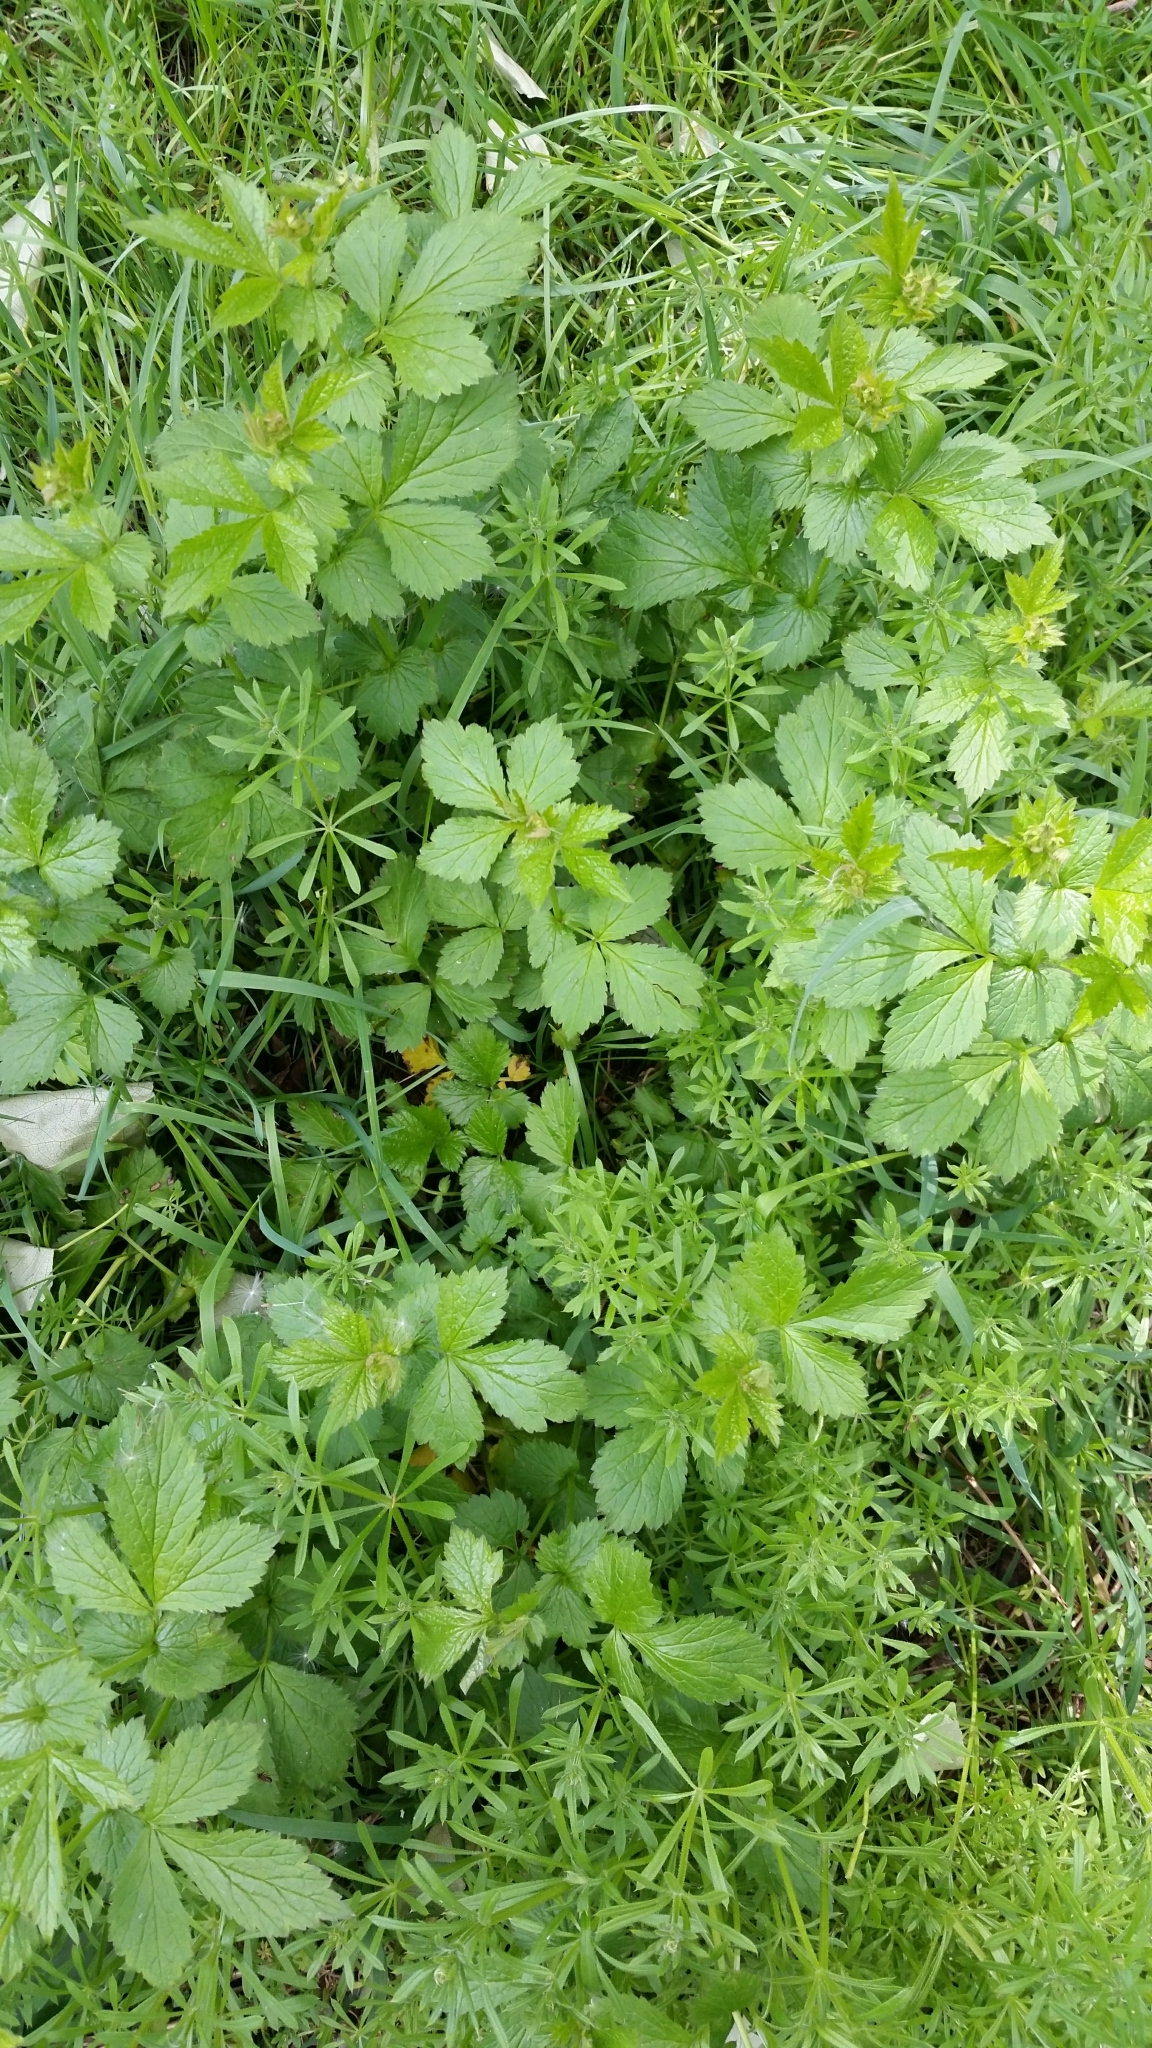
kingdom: Plantae
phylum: Tracheophyta
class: Magnoliopsida
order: Rosales
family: Rosaceae
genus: Geum
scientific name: Geum urbanum
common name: Wood avens
